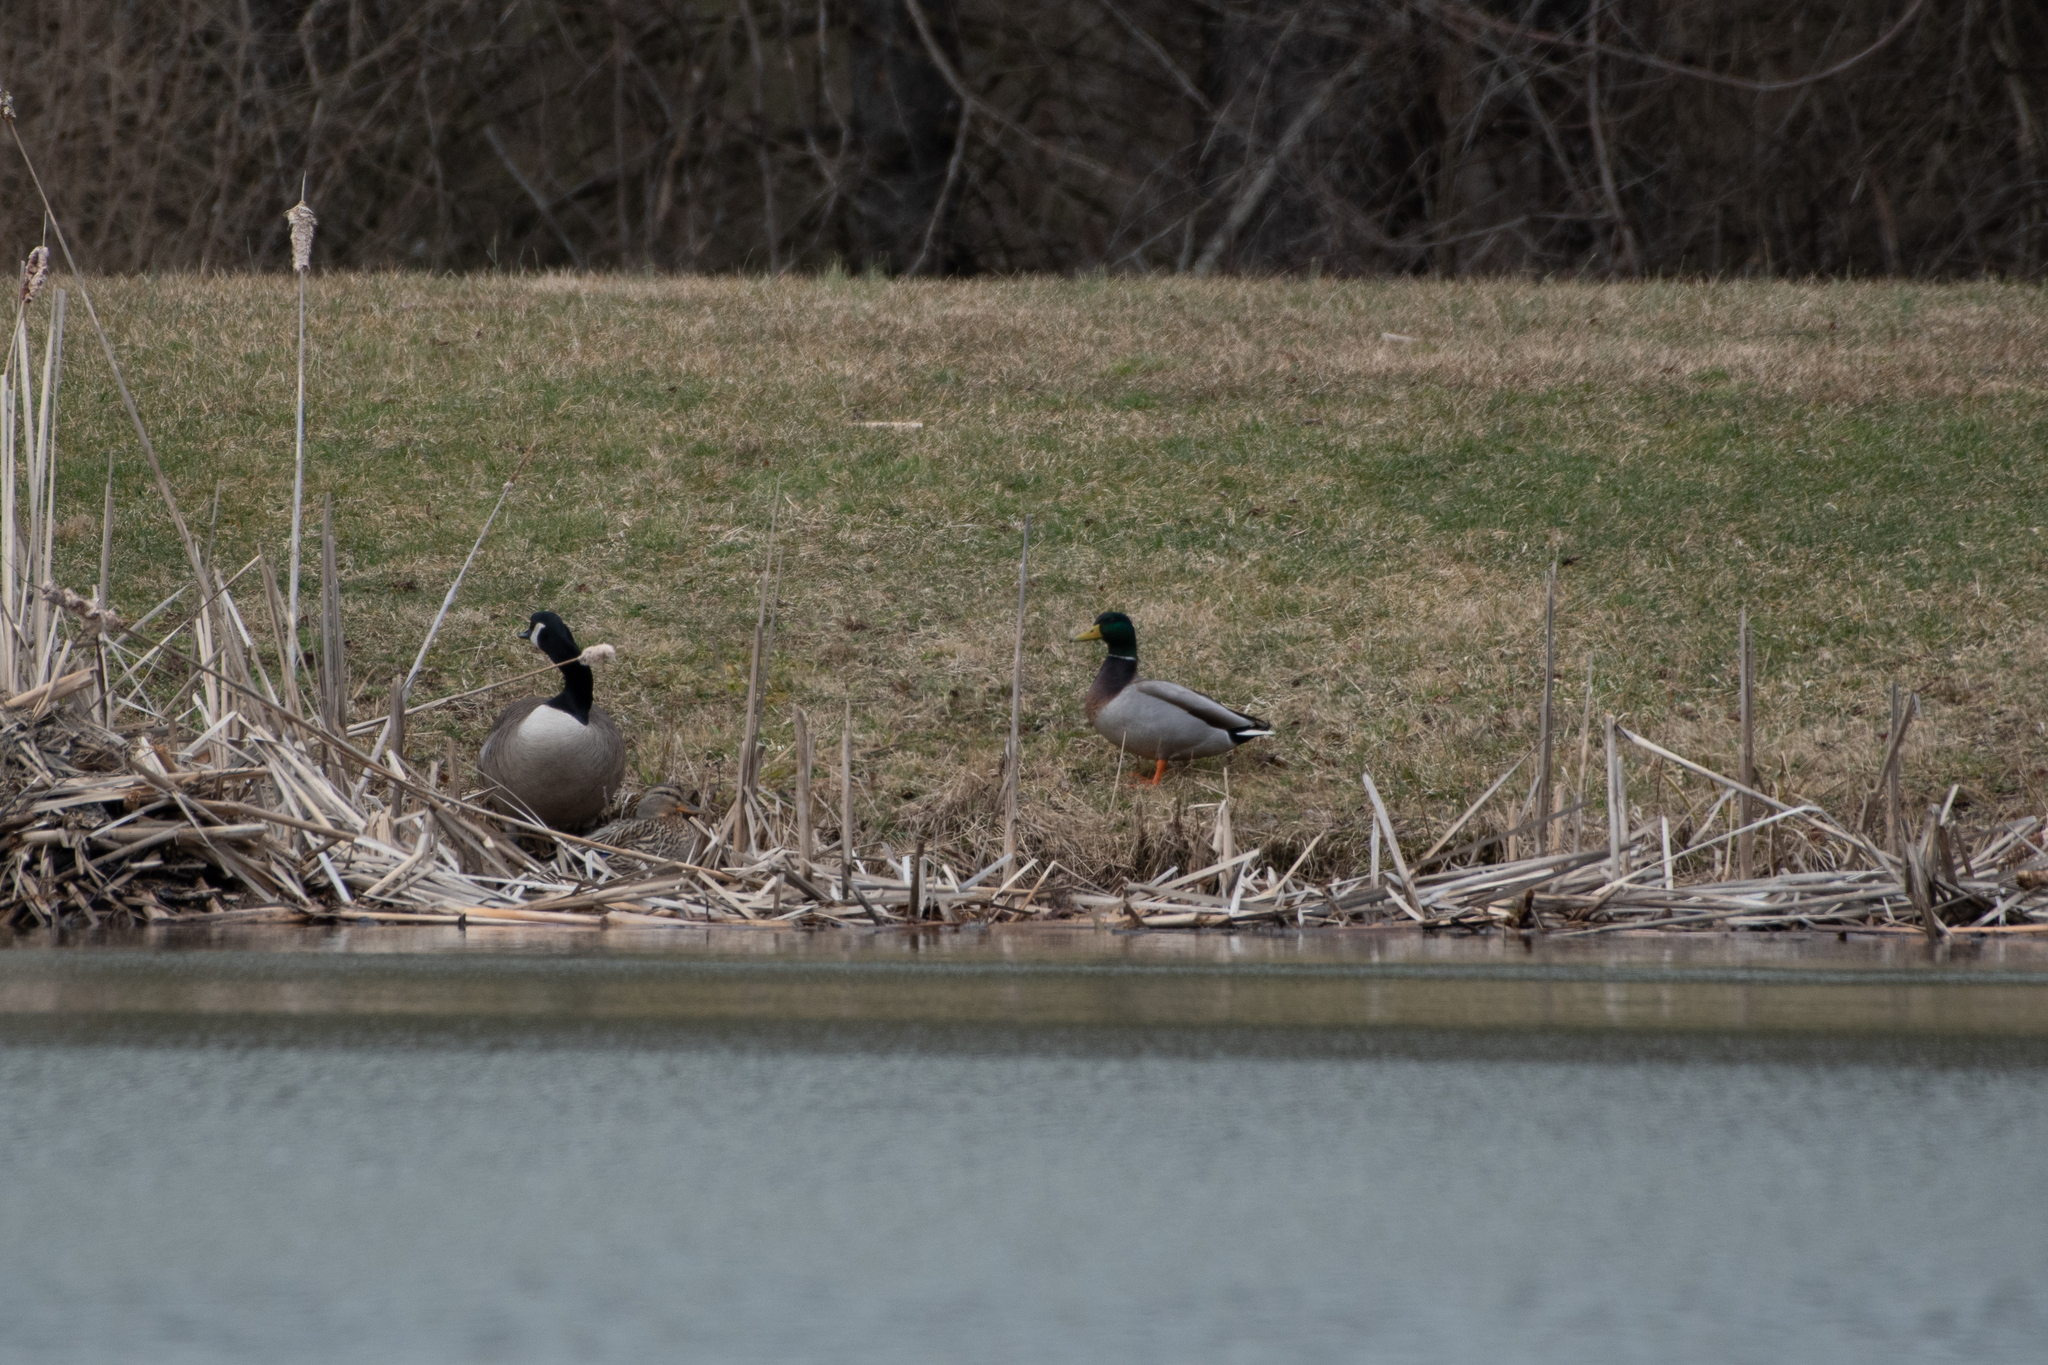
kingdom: Animalia
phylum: Chordata
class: Aves
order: Anseriformes
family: Anatidae
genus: Anas
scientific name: Anas platyrhynchos
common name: Mallard
